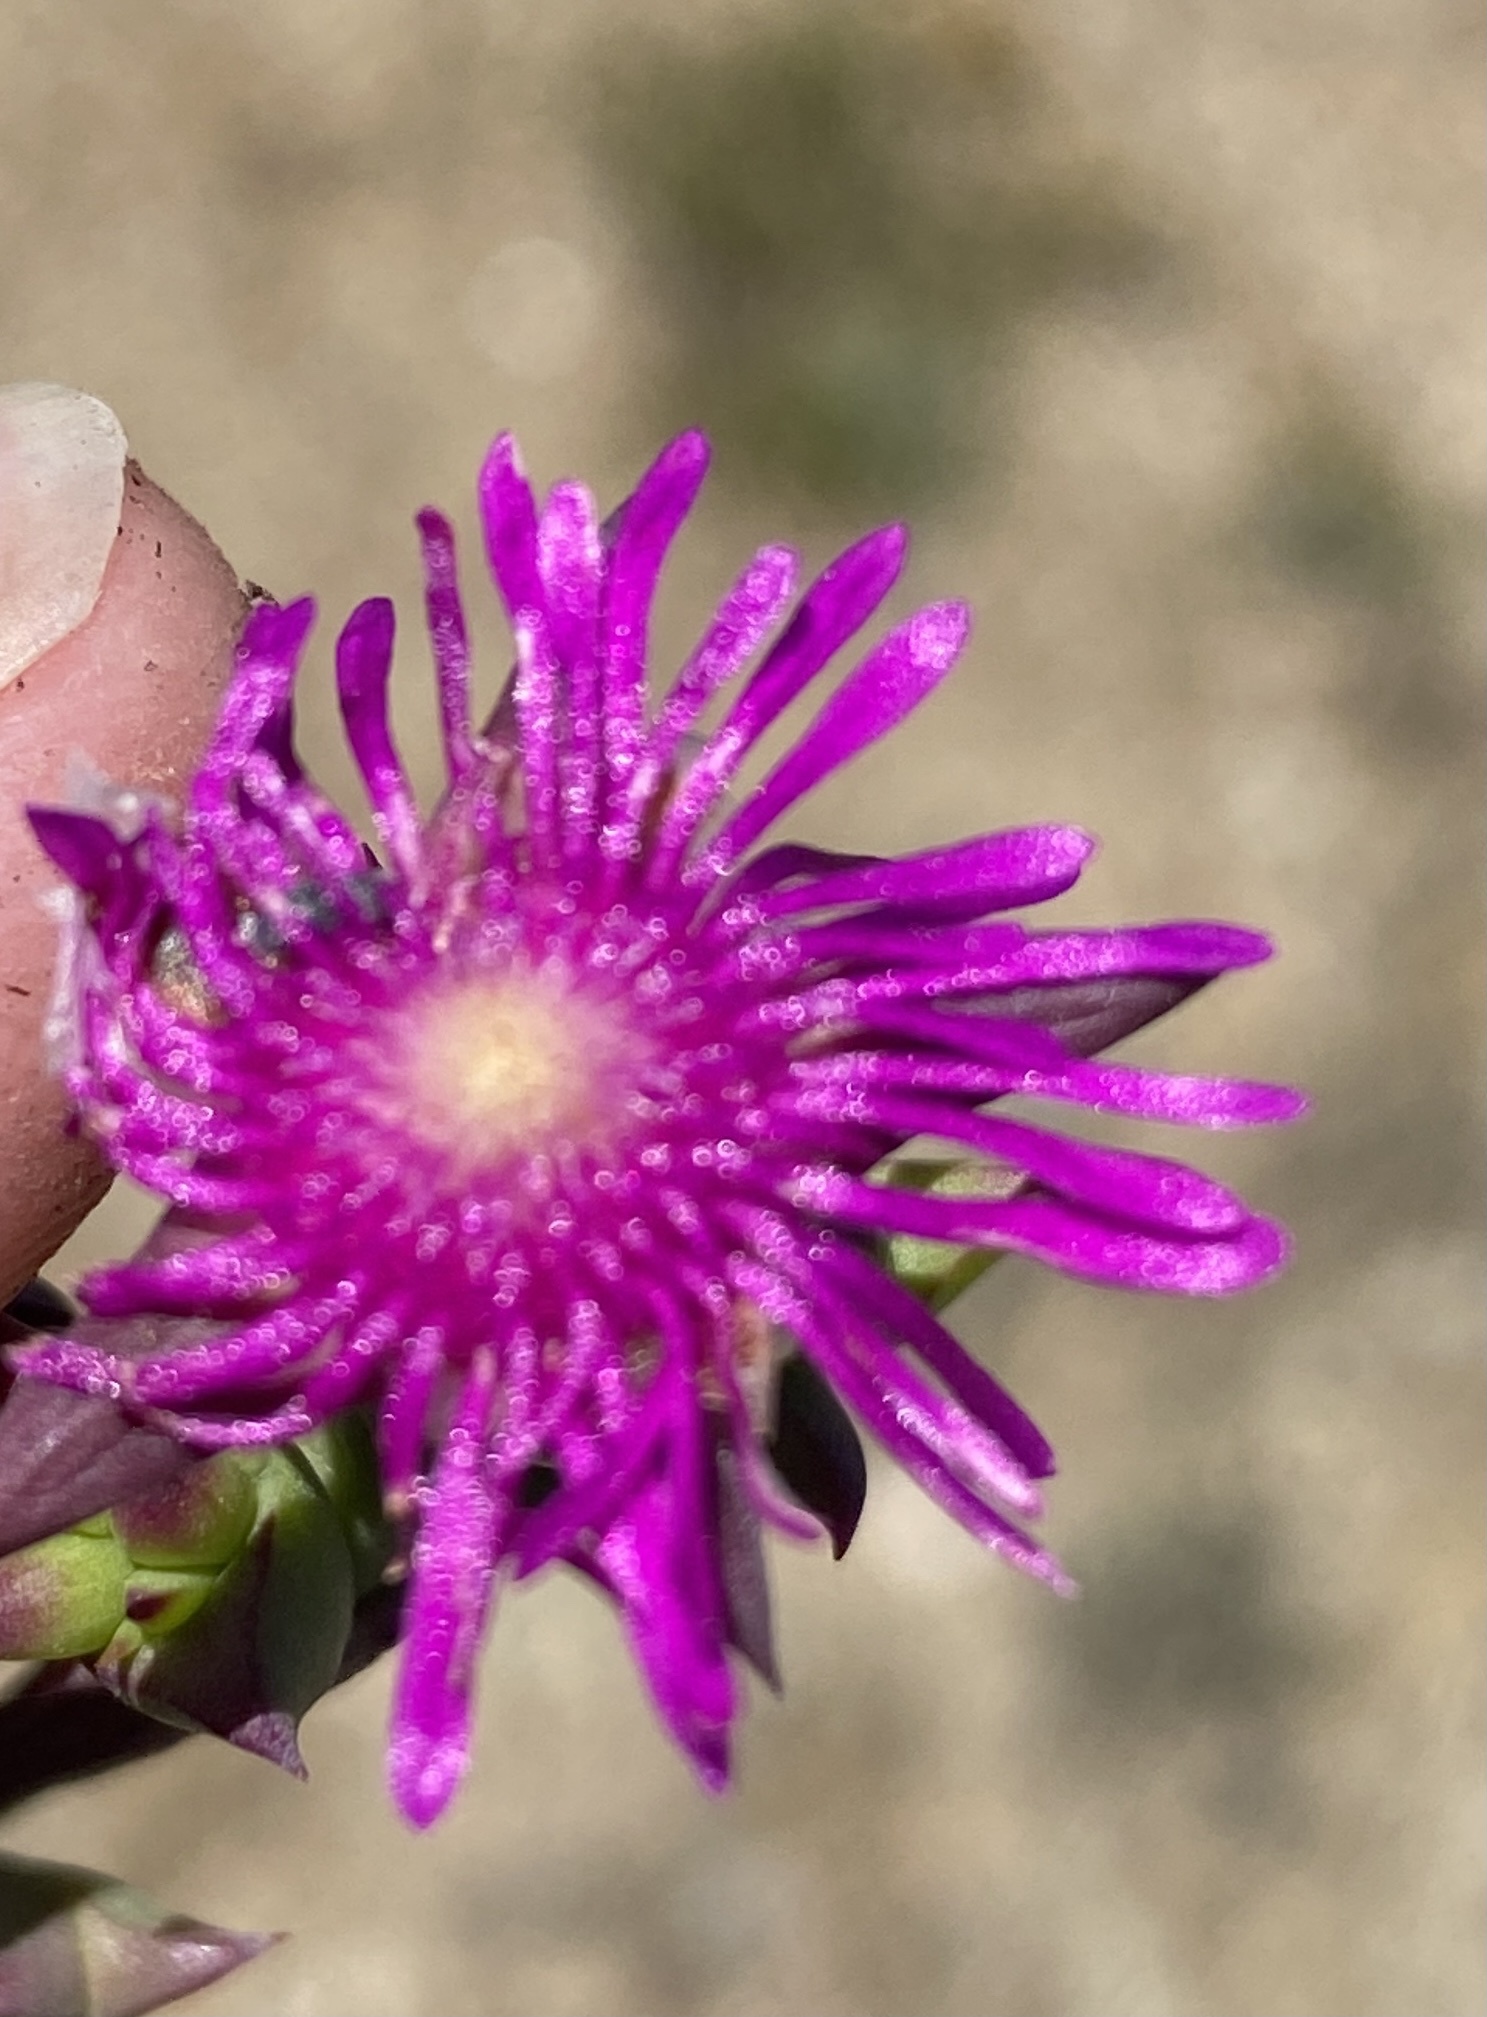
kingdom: Plantae
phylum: Tracheophyta
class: Magnoliopsida
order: Caryophyllales
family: Aizoaceae
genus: Smicrostigma
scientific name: Smicrostigma viride
